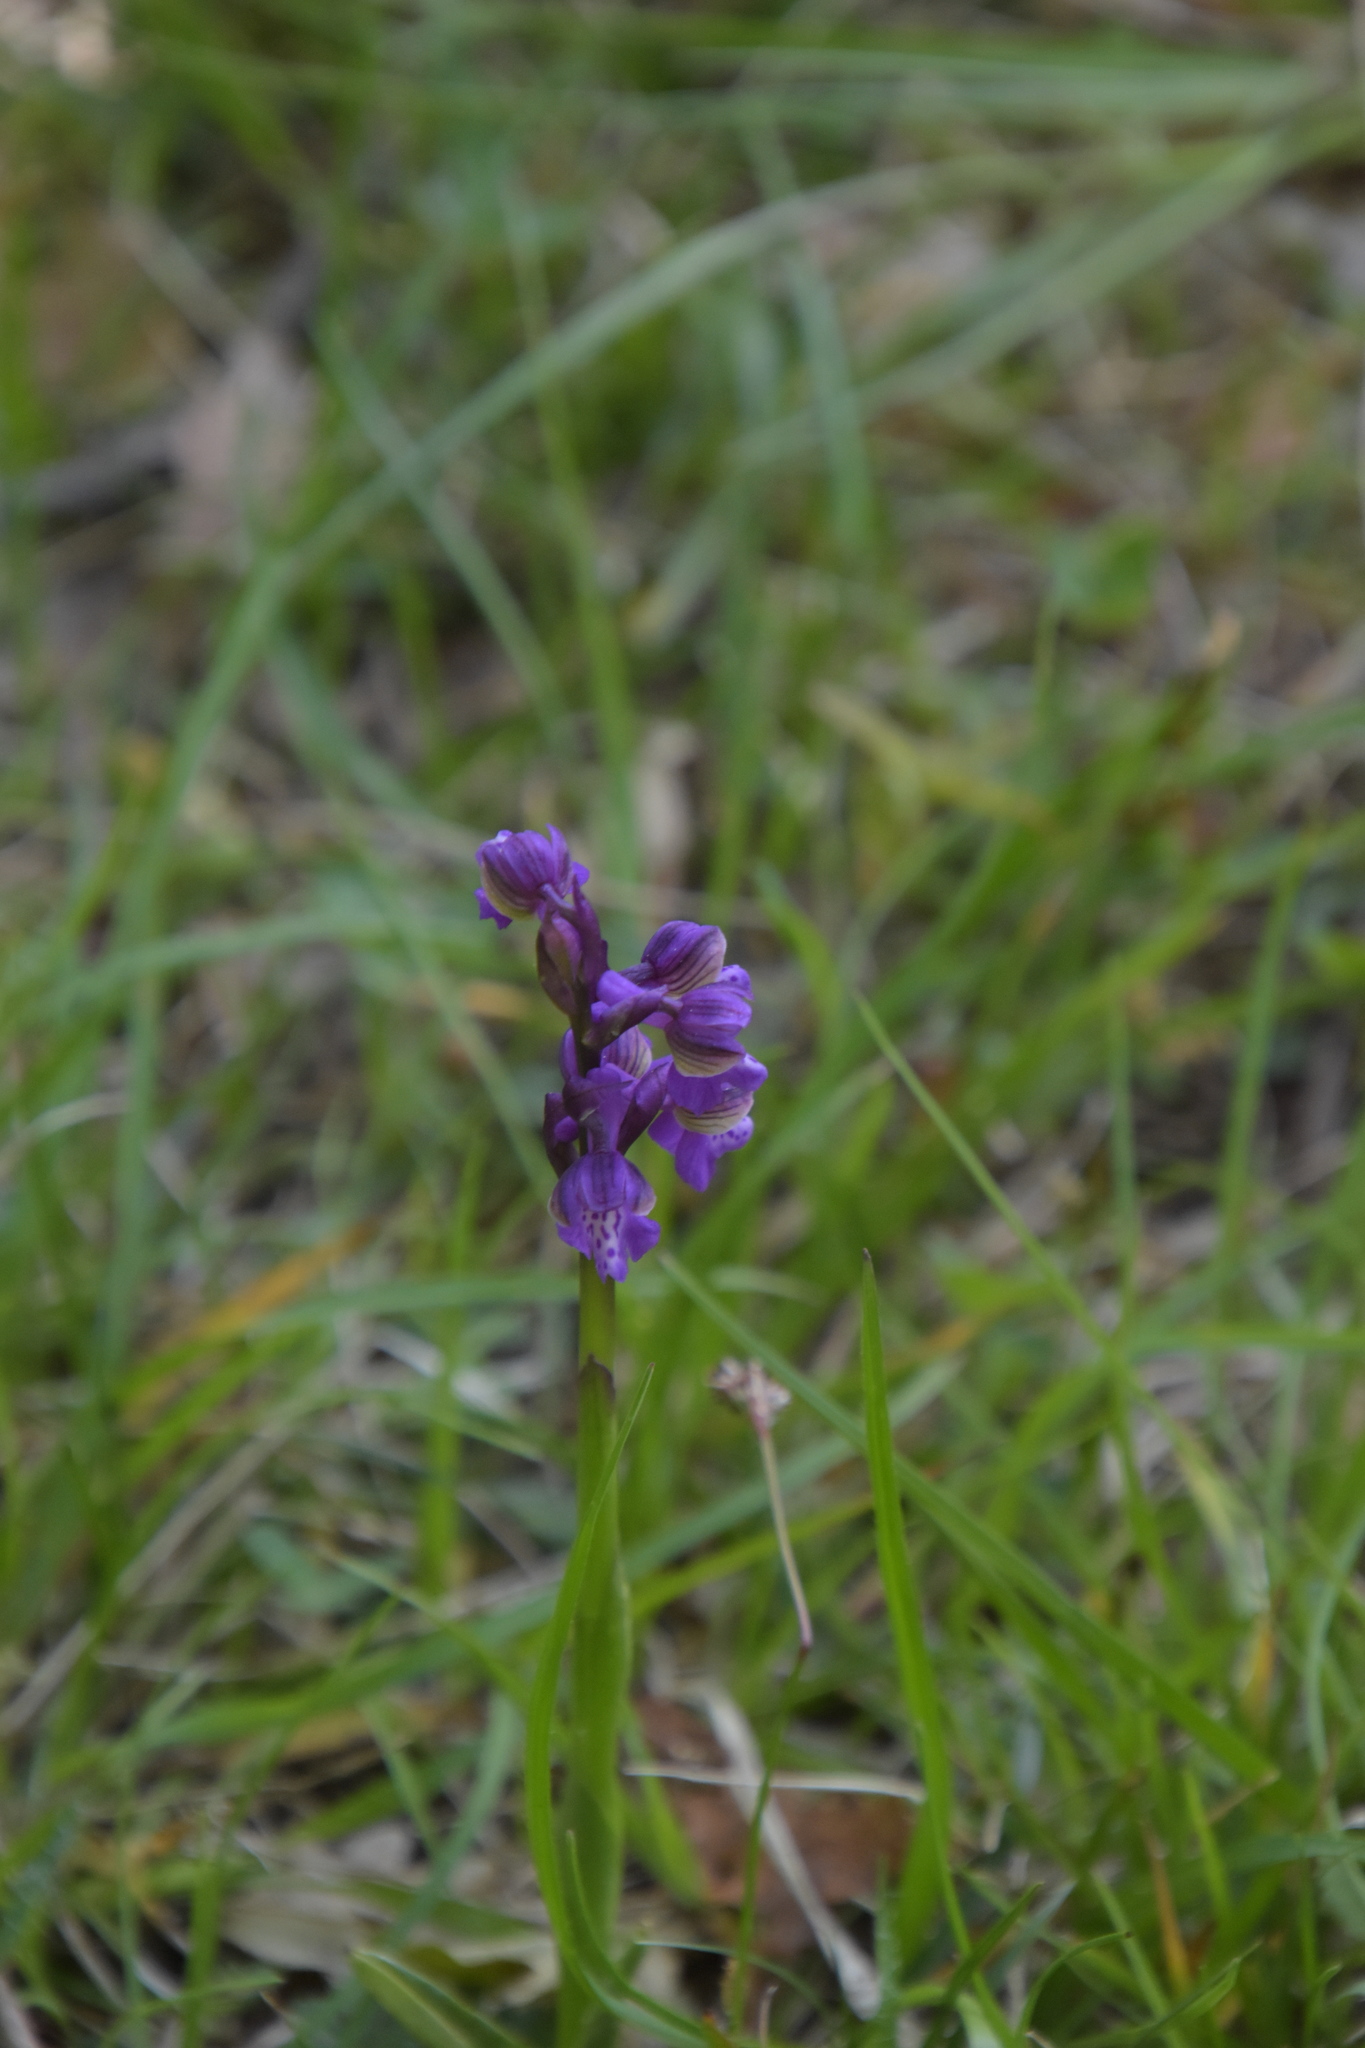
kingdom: Plantae
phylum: Tracheophyta
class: Liliopsida
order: Asparagales
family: Orchidaceae
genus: Anacamptis
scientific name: Anacamptis morio
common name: Green-winged orchid
